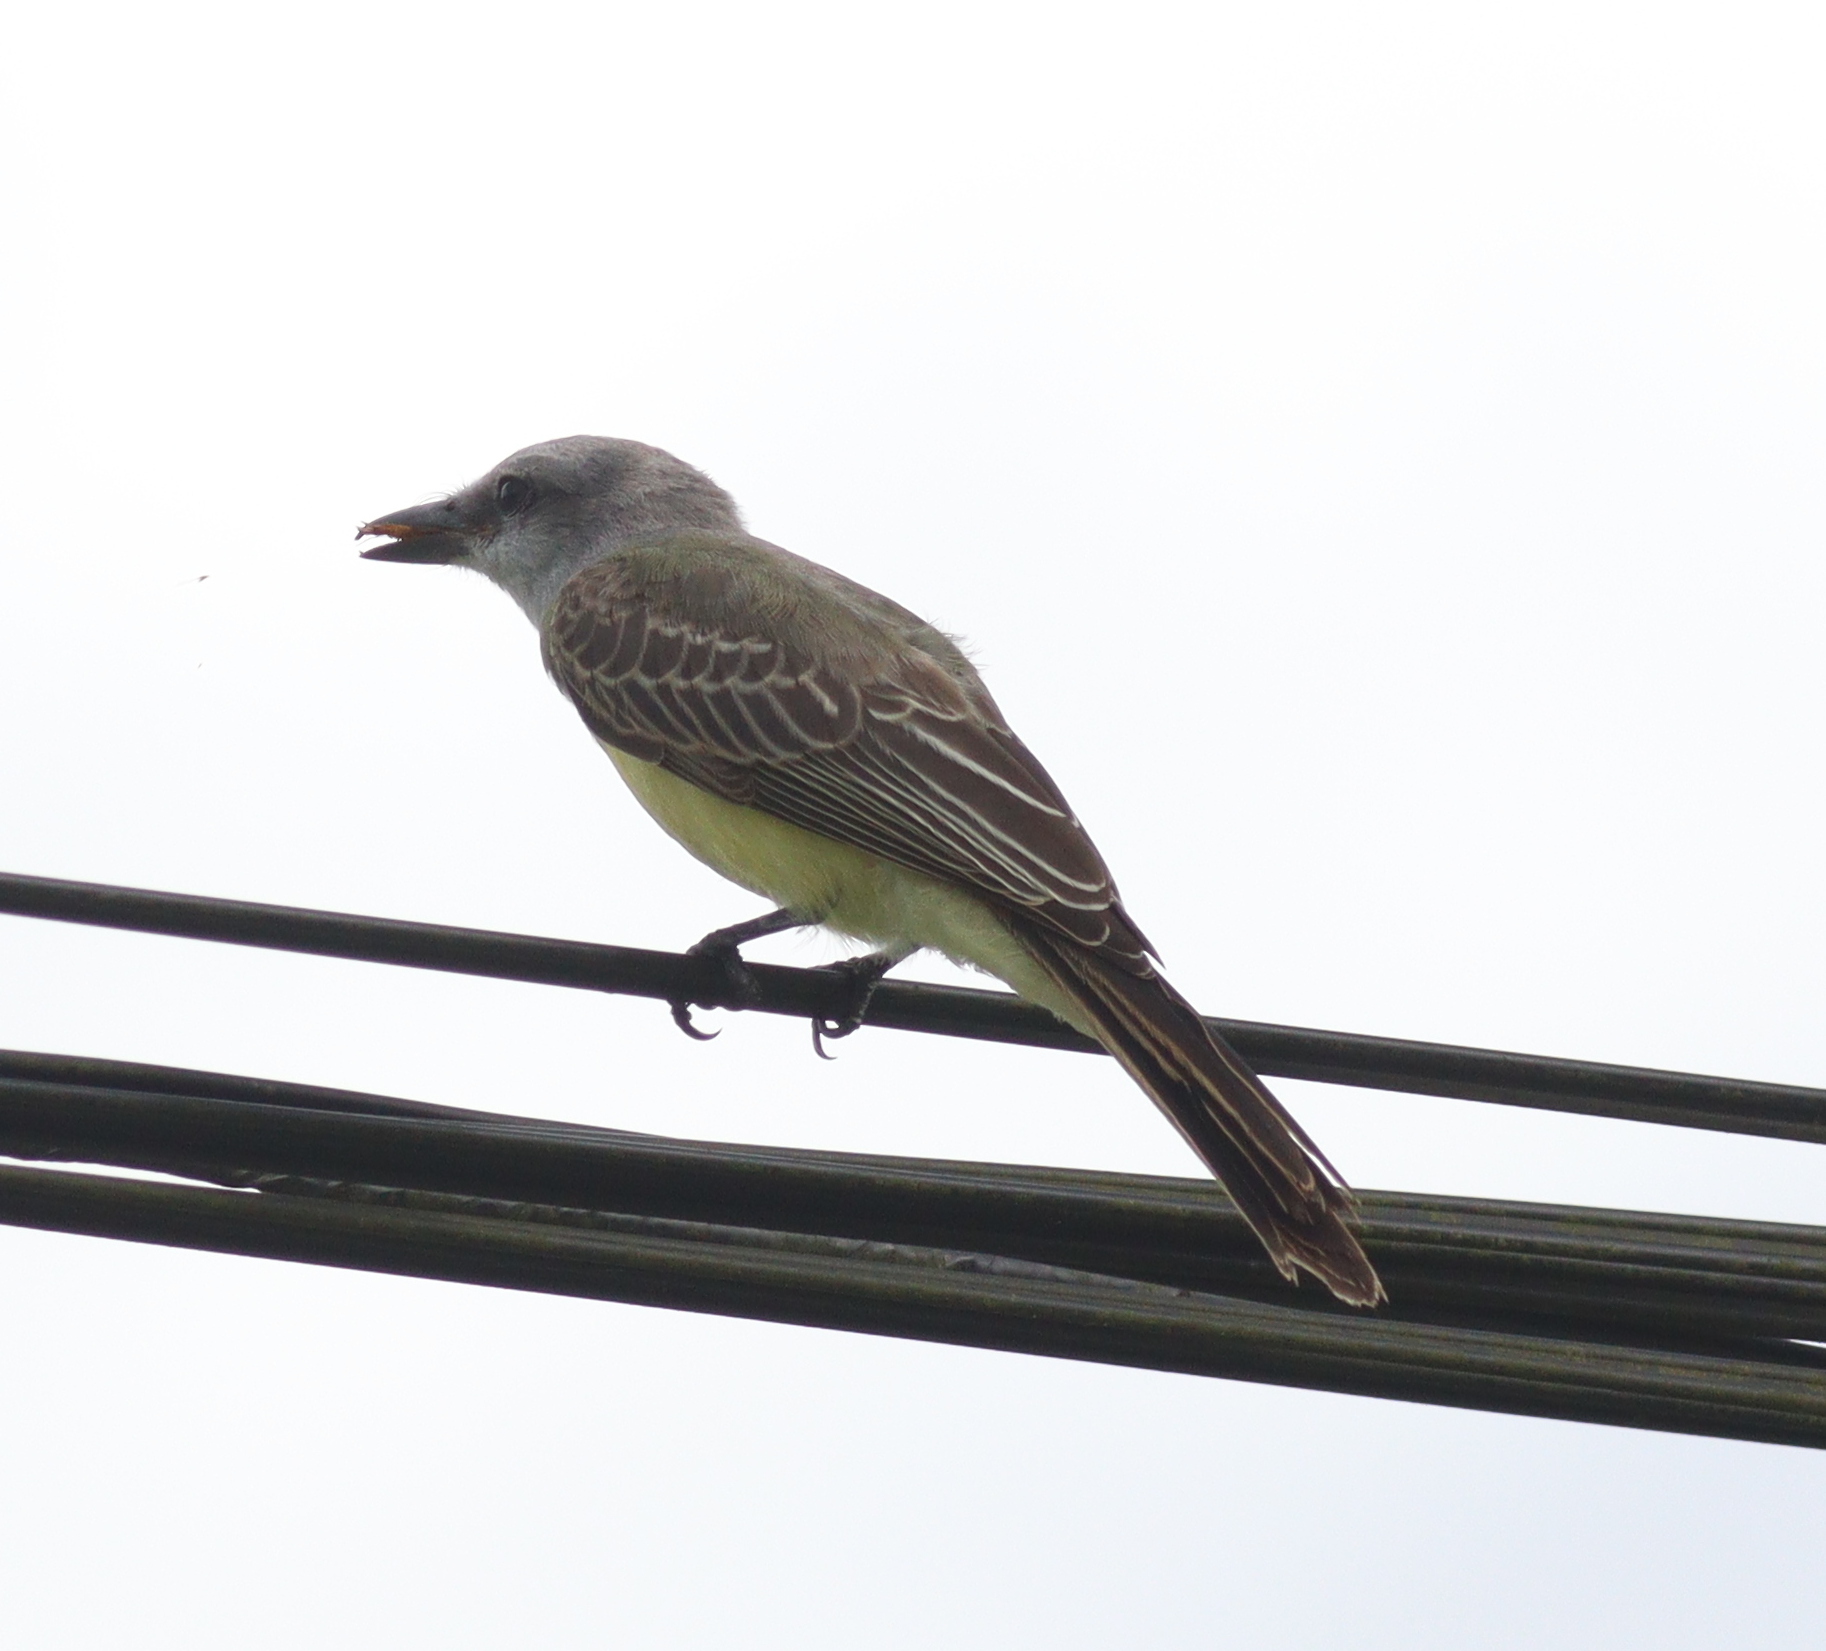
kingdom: Animalia
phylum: Chordata
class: Aves
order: Passeriformes
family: Tyrannidae
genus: Tyrannus
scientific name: Tyrannus melancholicus
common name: Tropical kingbird
